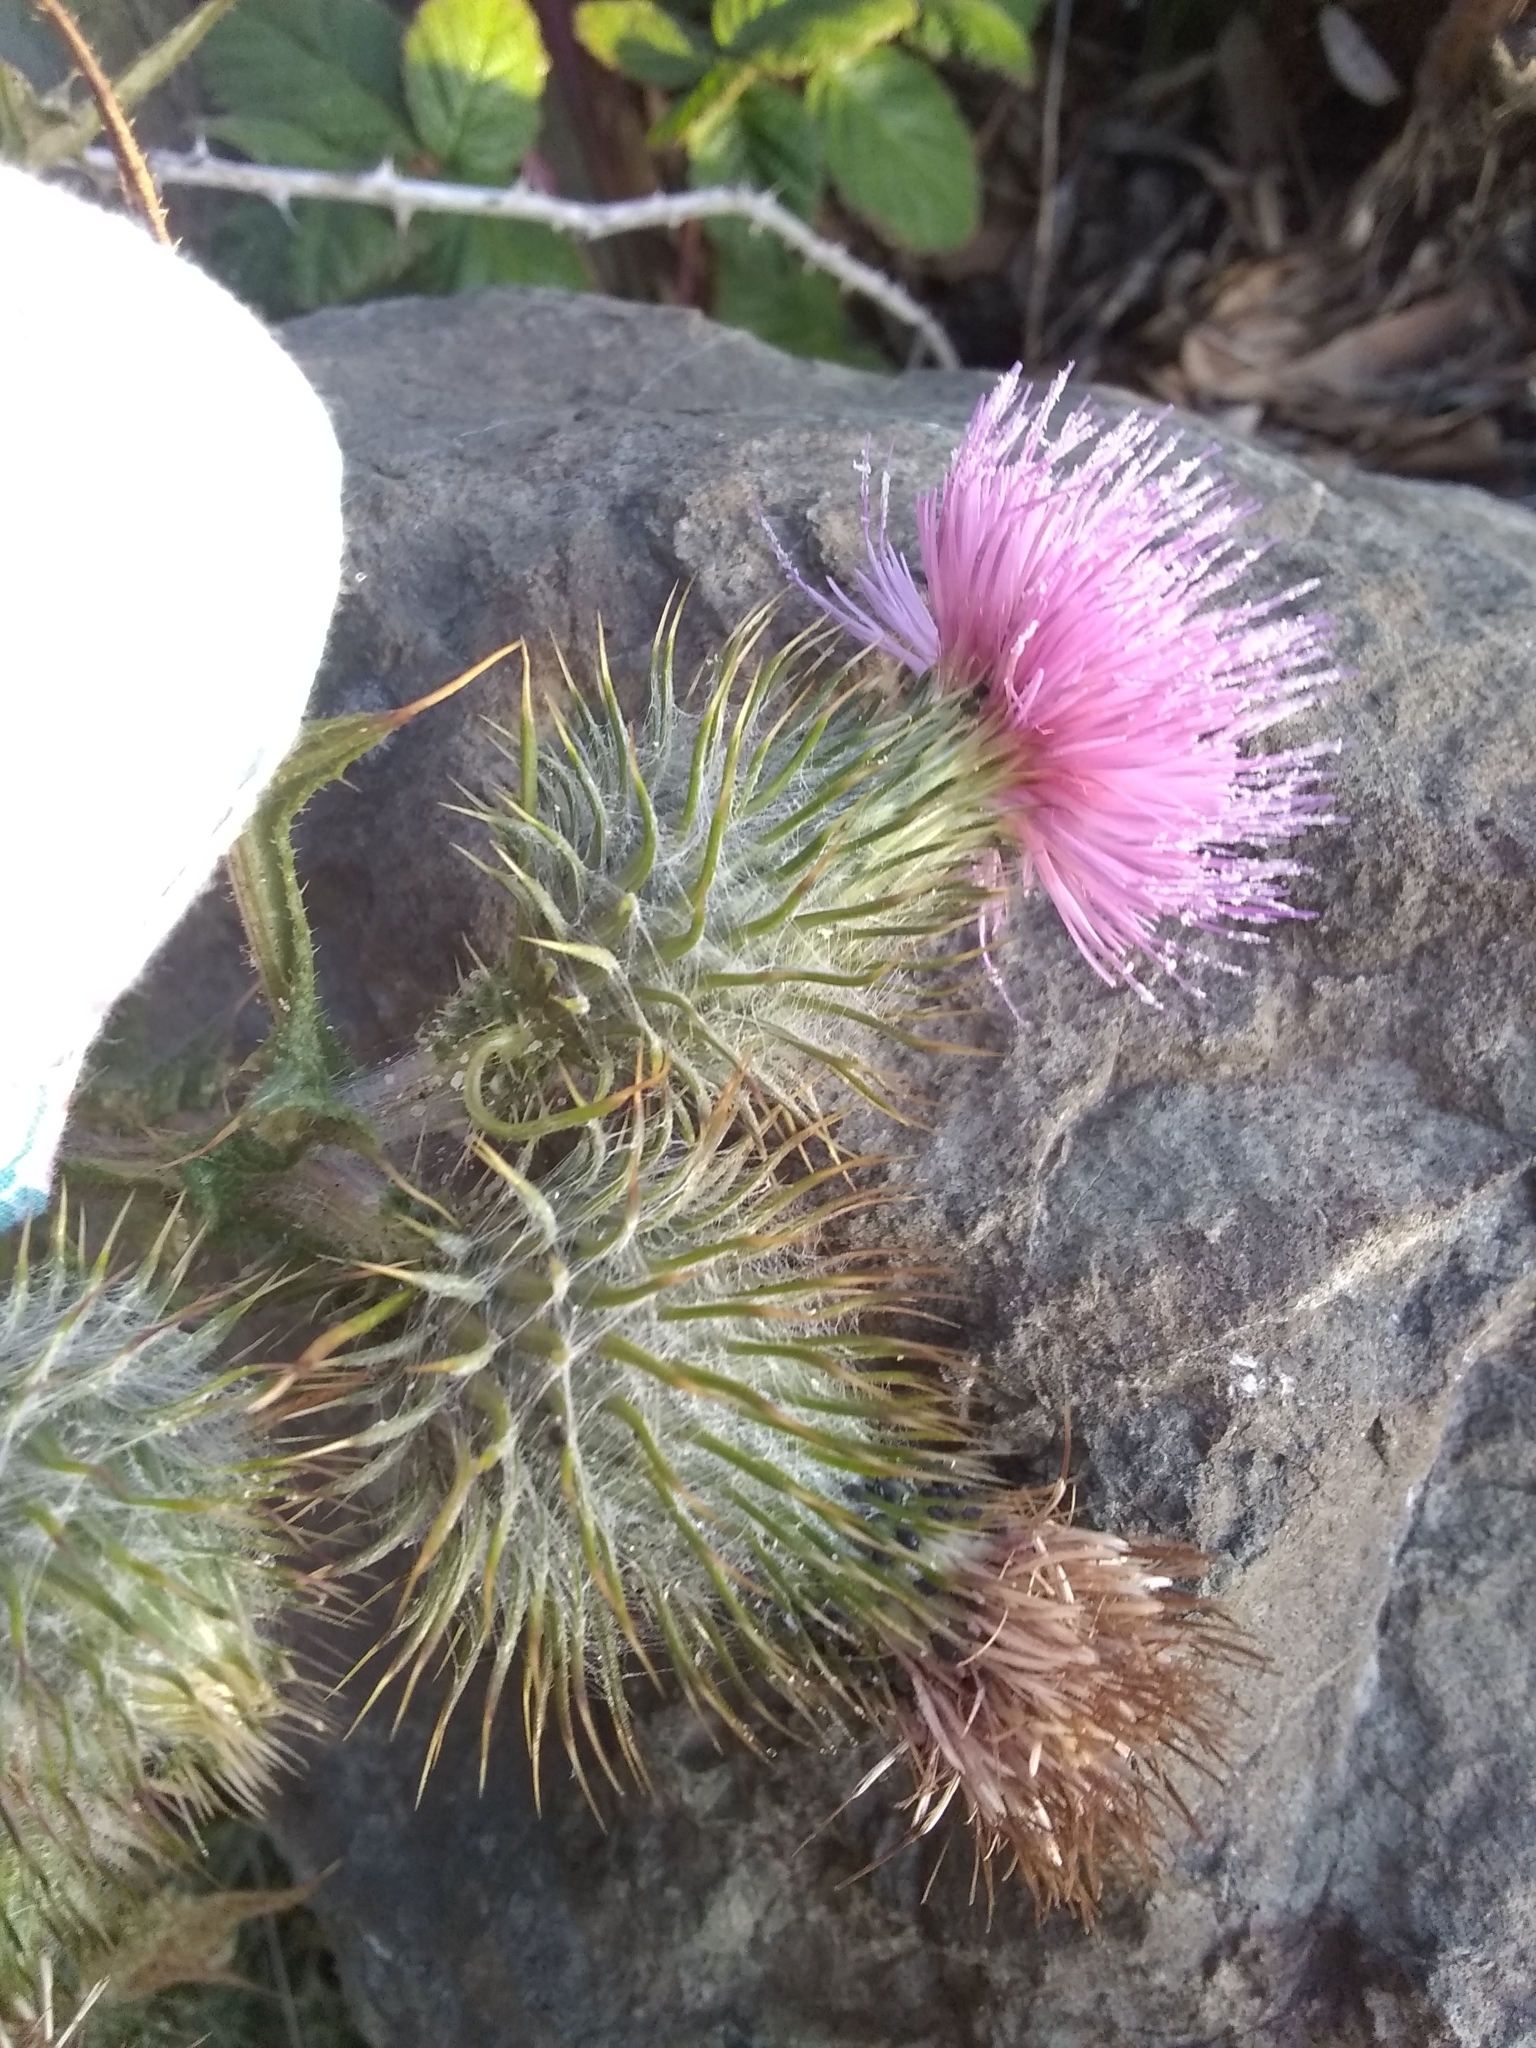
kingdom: Plantae
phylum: Tracheophyta
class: Magnoliopsida
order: Asterales
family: Asteraceae
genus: Cirsium
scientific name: Cirsium vulgare
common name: Bull thistle
